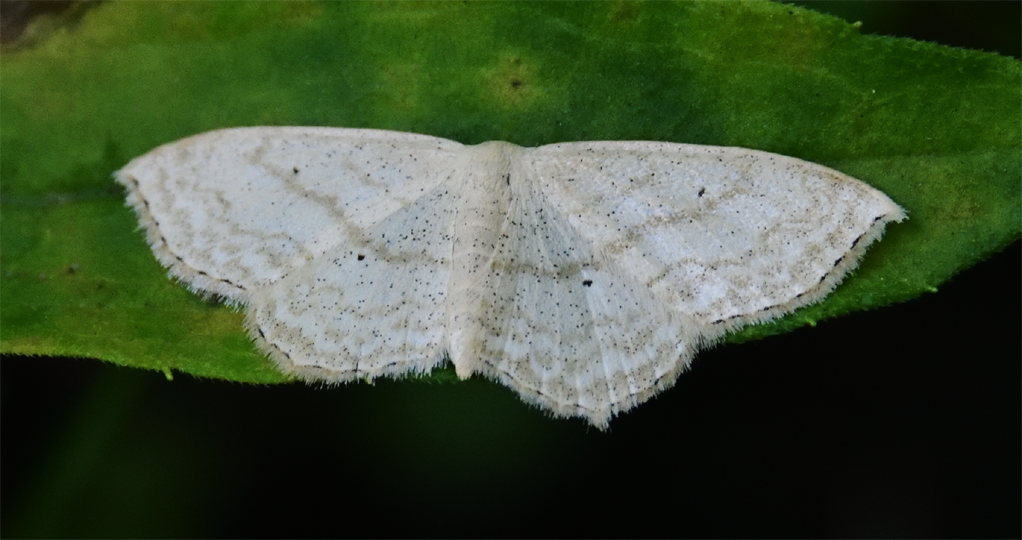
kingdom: Animalia
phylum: Arthropoda
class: Insecta
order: Lepidoptera
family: Geometridae
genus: Scopula
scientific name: Scopula limboundata
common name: Large lace border
